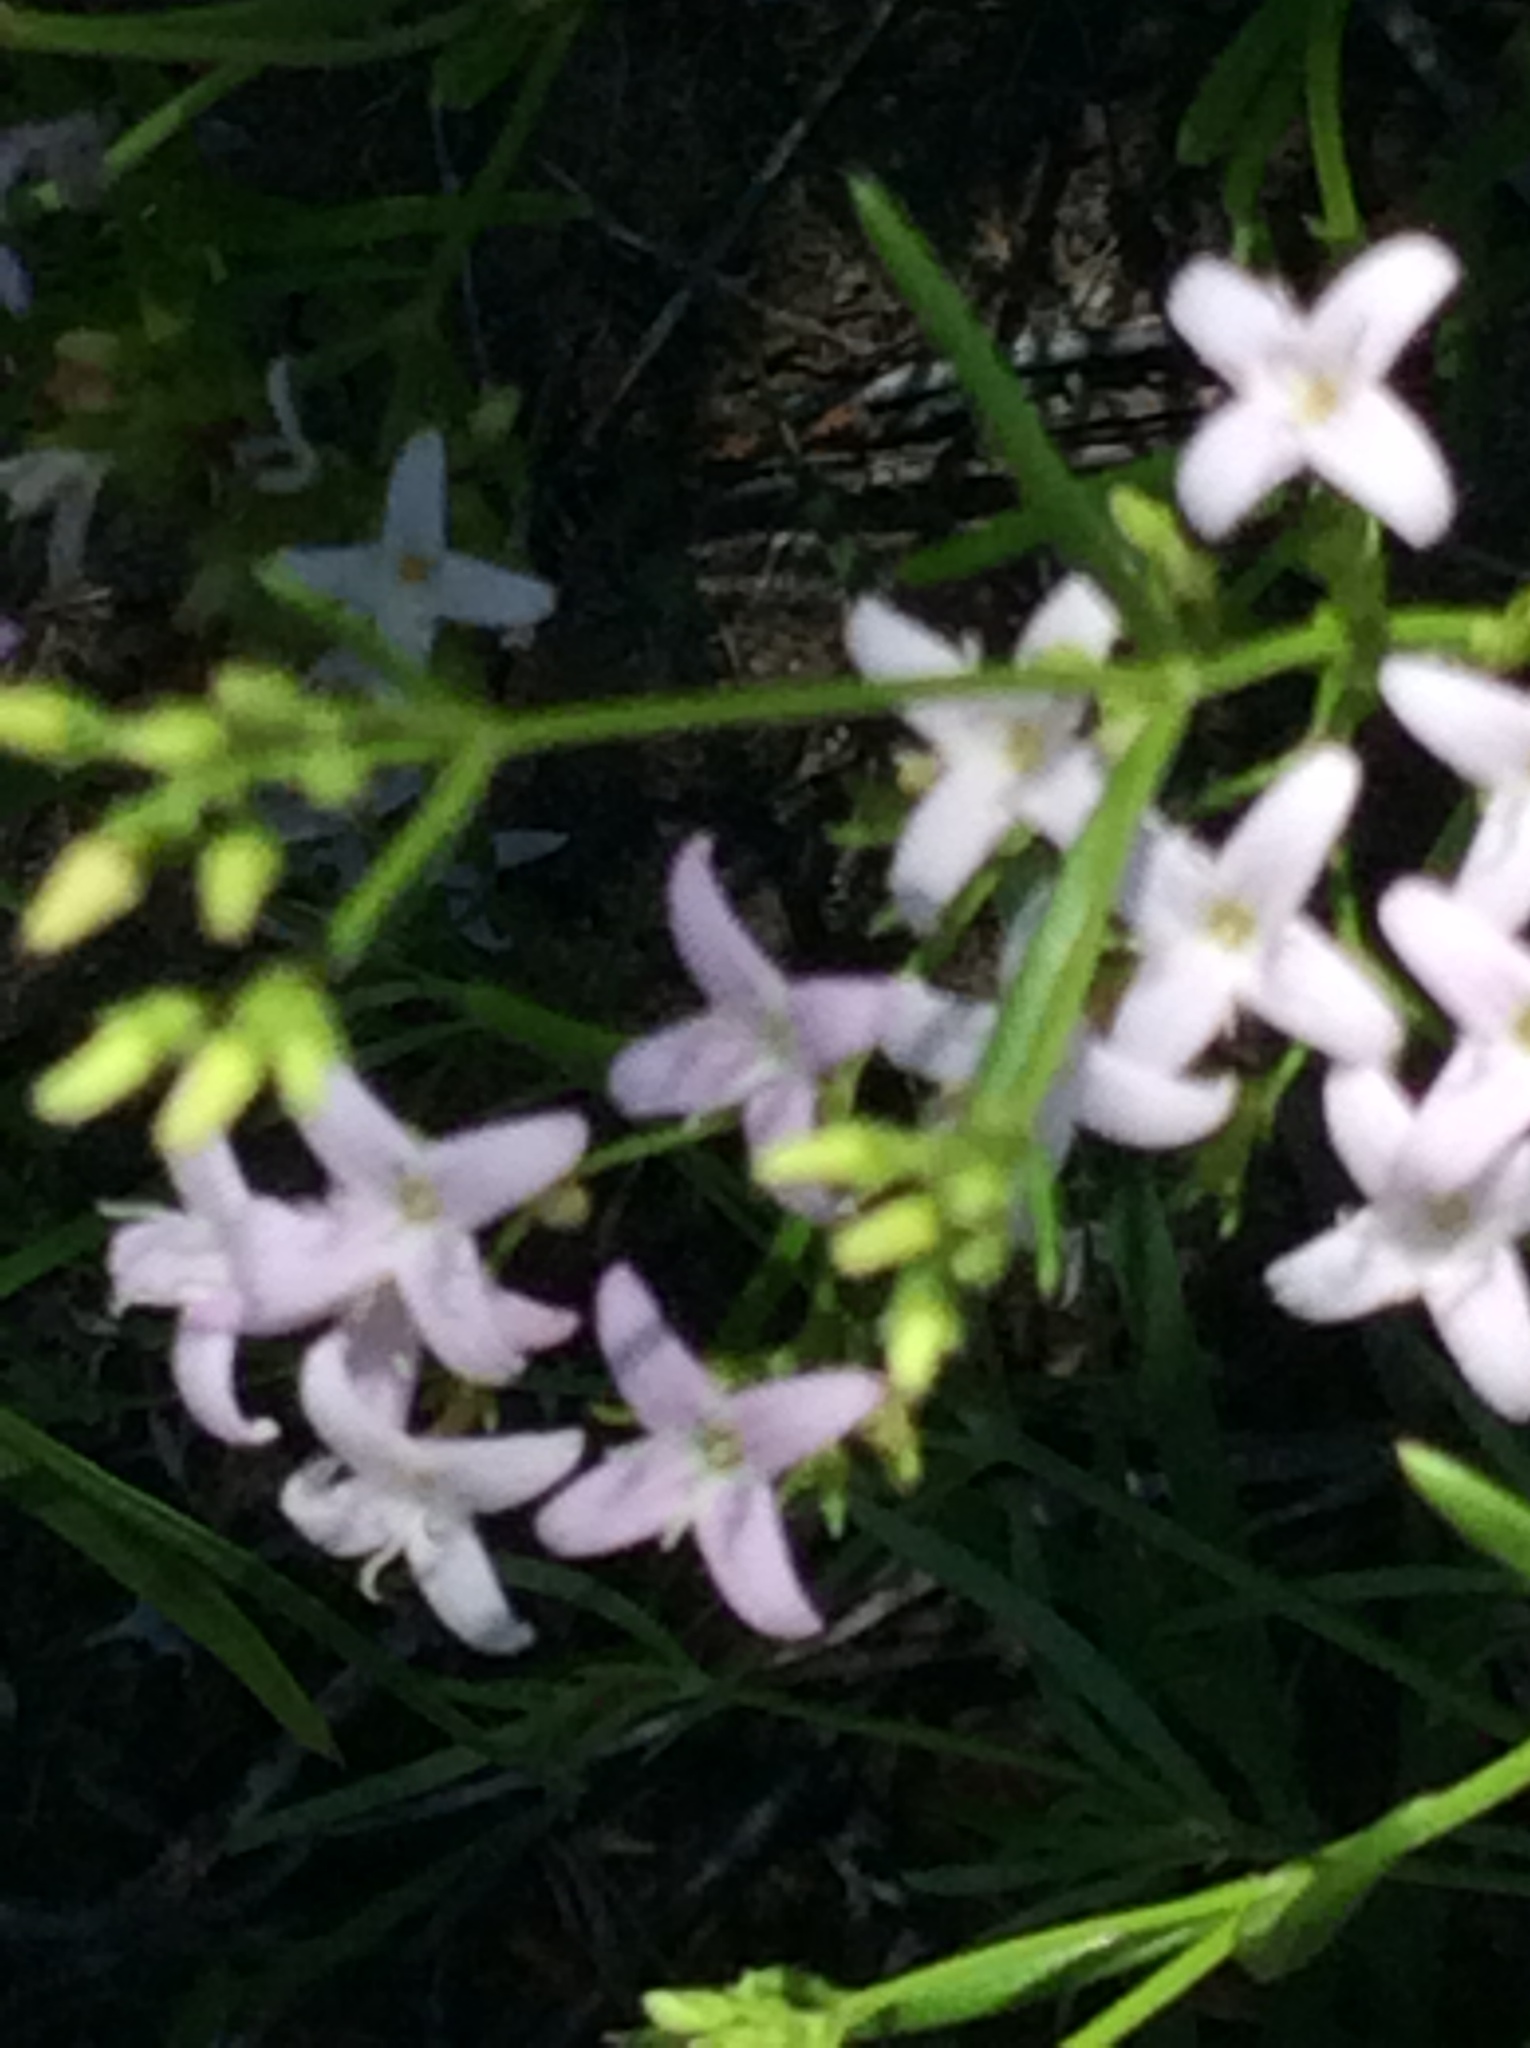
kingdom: Plantae
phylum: Tracheophyta
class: Magnoliopsida
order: Gentianales
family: Rubiaceae
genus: Stenaria
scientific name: Stenaria nigricans
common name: Diamondflowers
